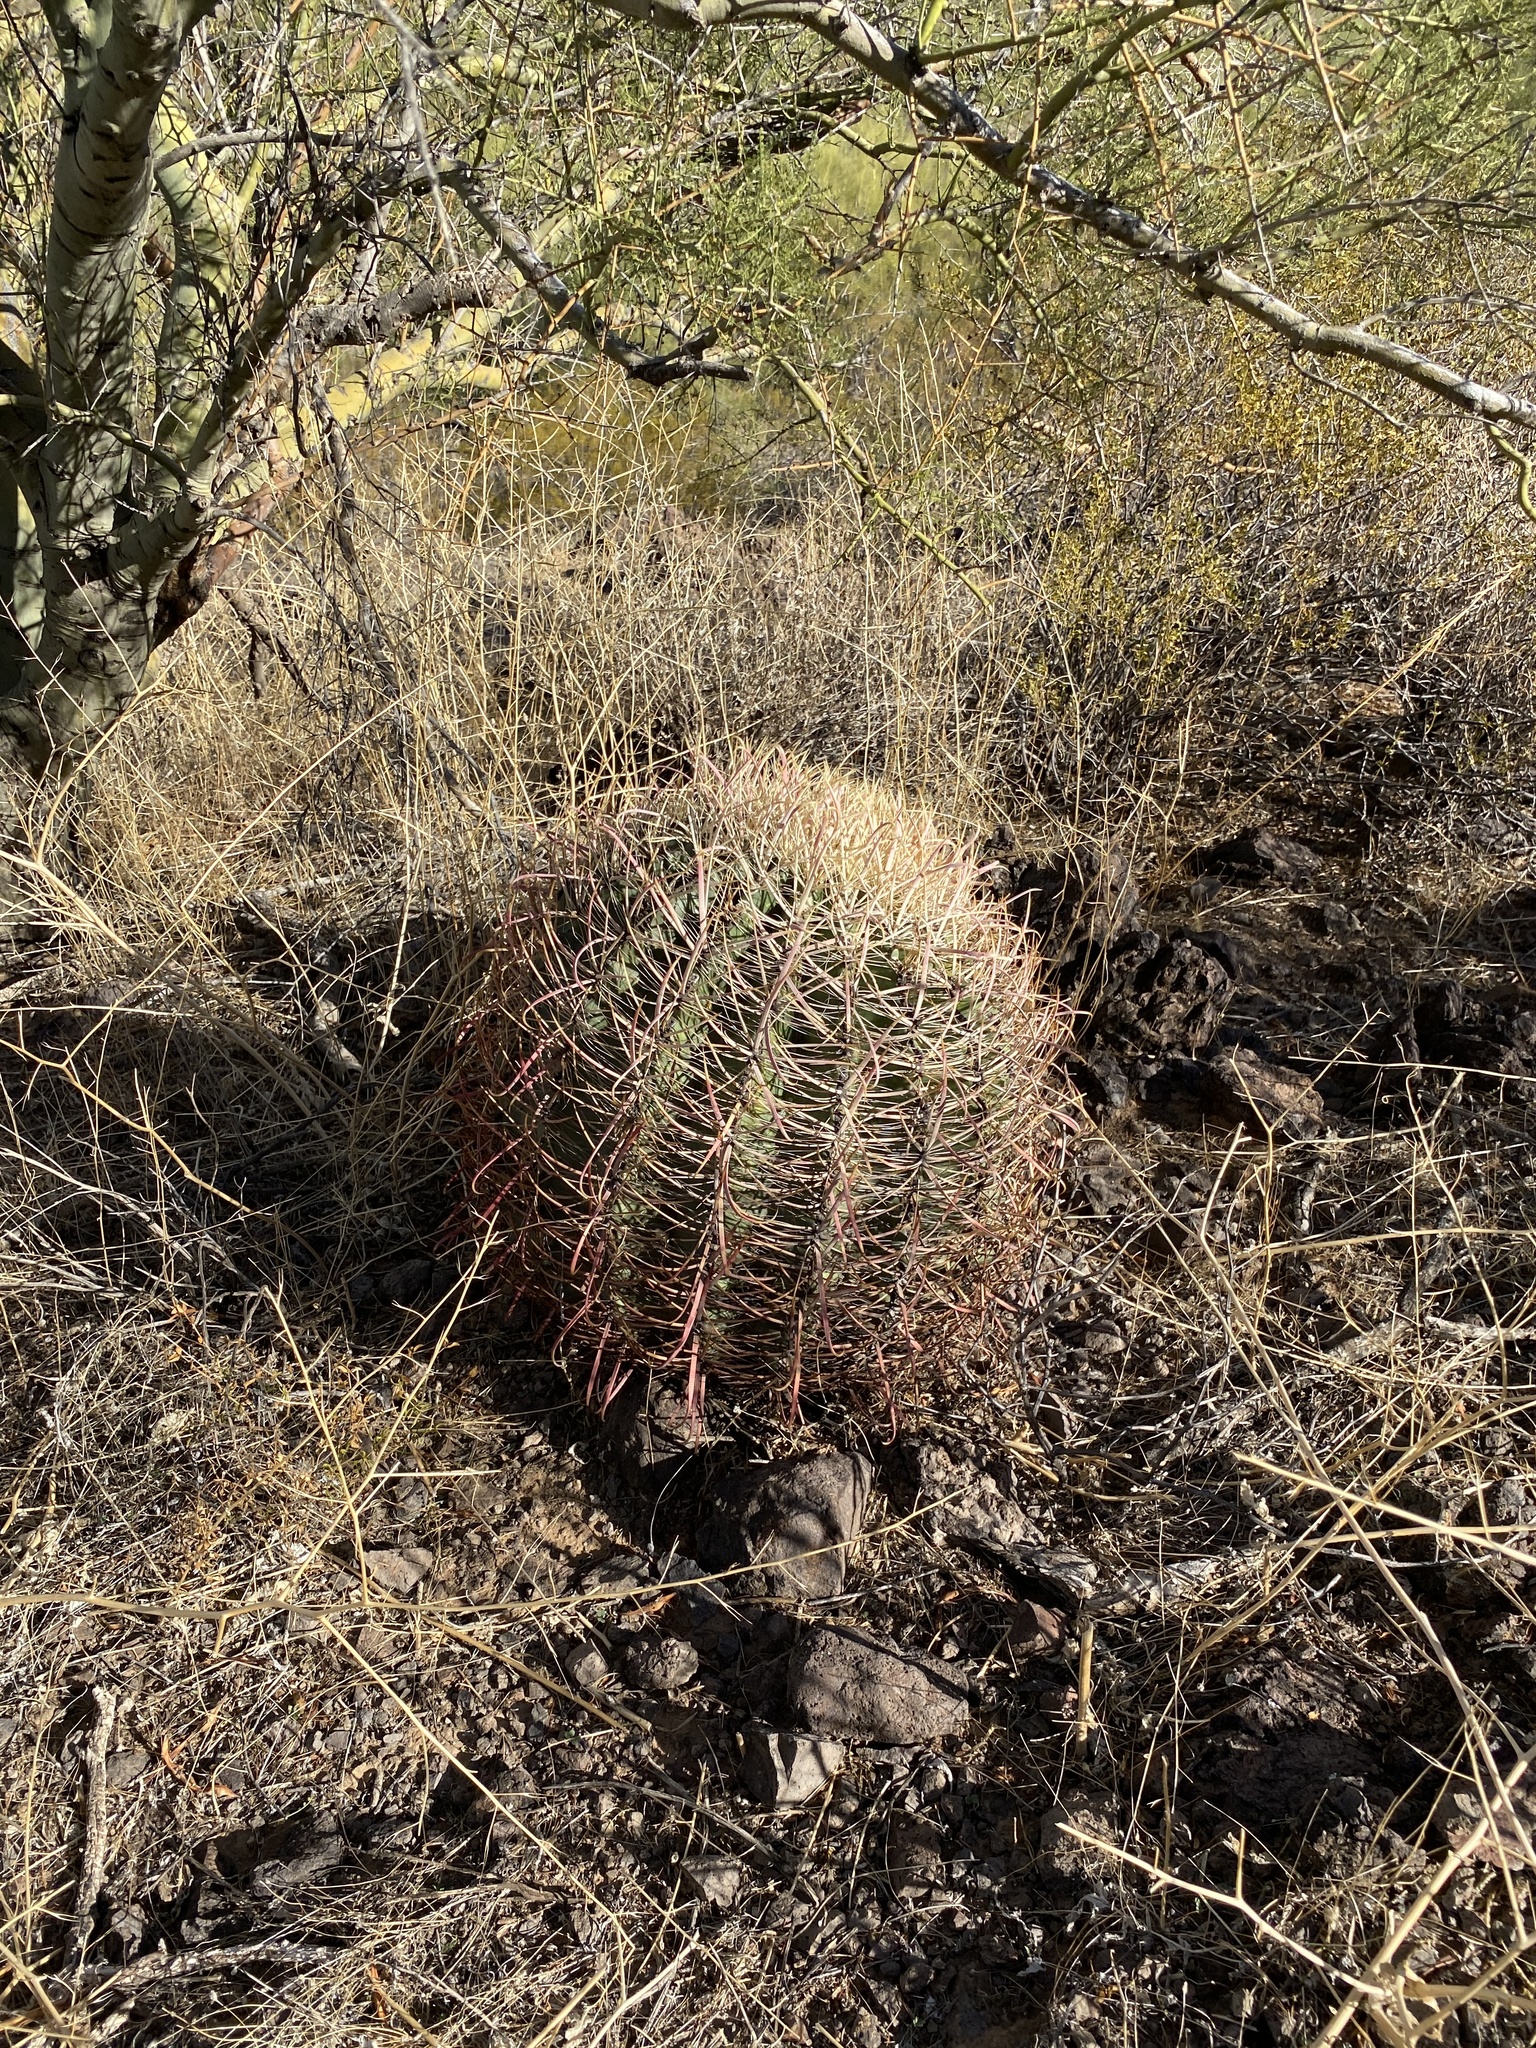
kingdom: Plantae
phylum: Tracheophyta
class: Magnoliopsida
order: Caryophyllales
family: Cactaceae
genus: Ferocactus
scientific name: Ferocactus cylindraceus
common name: California barrel cactus
